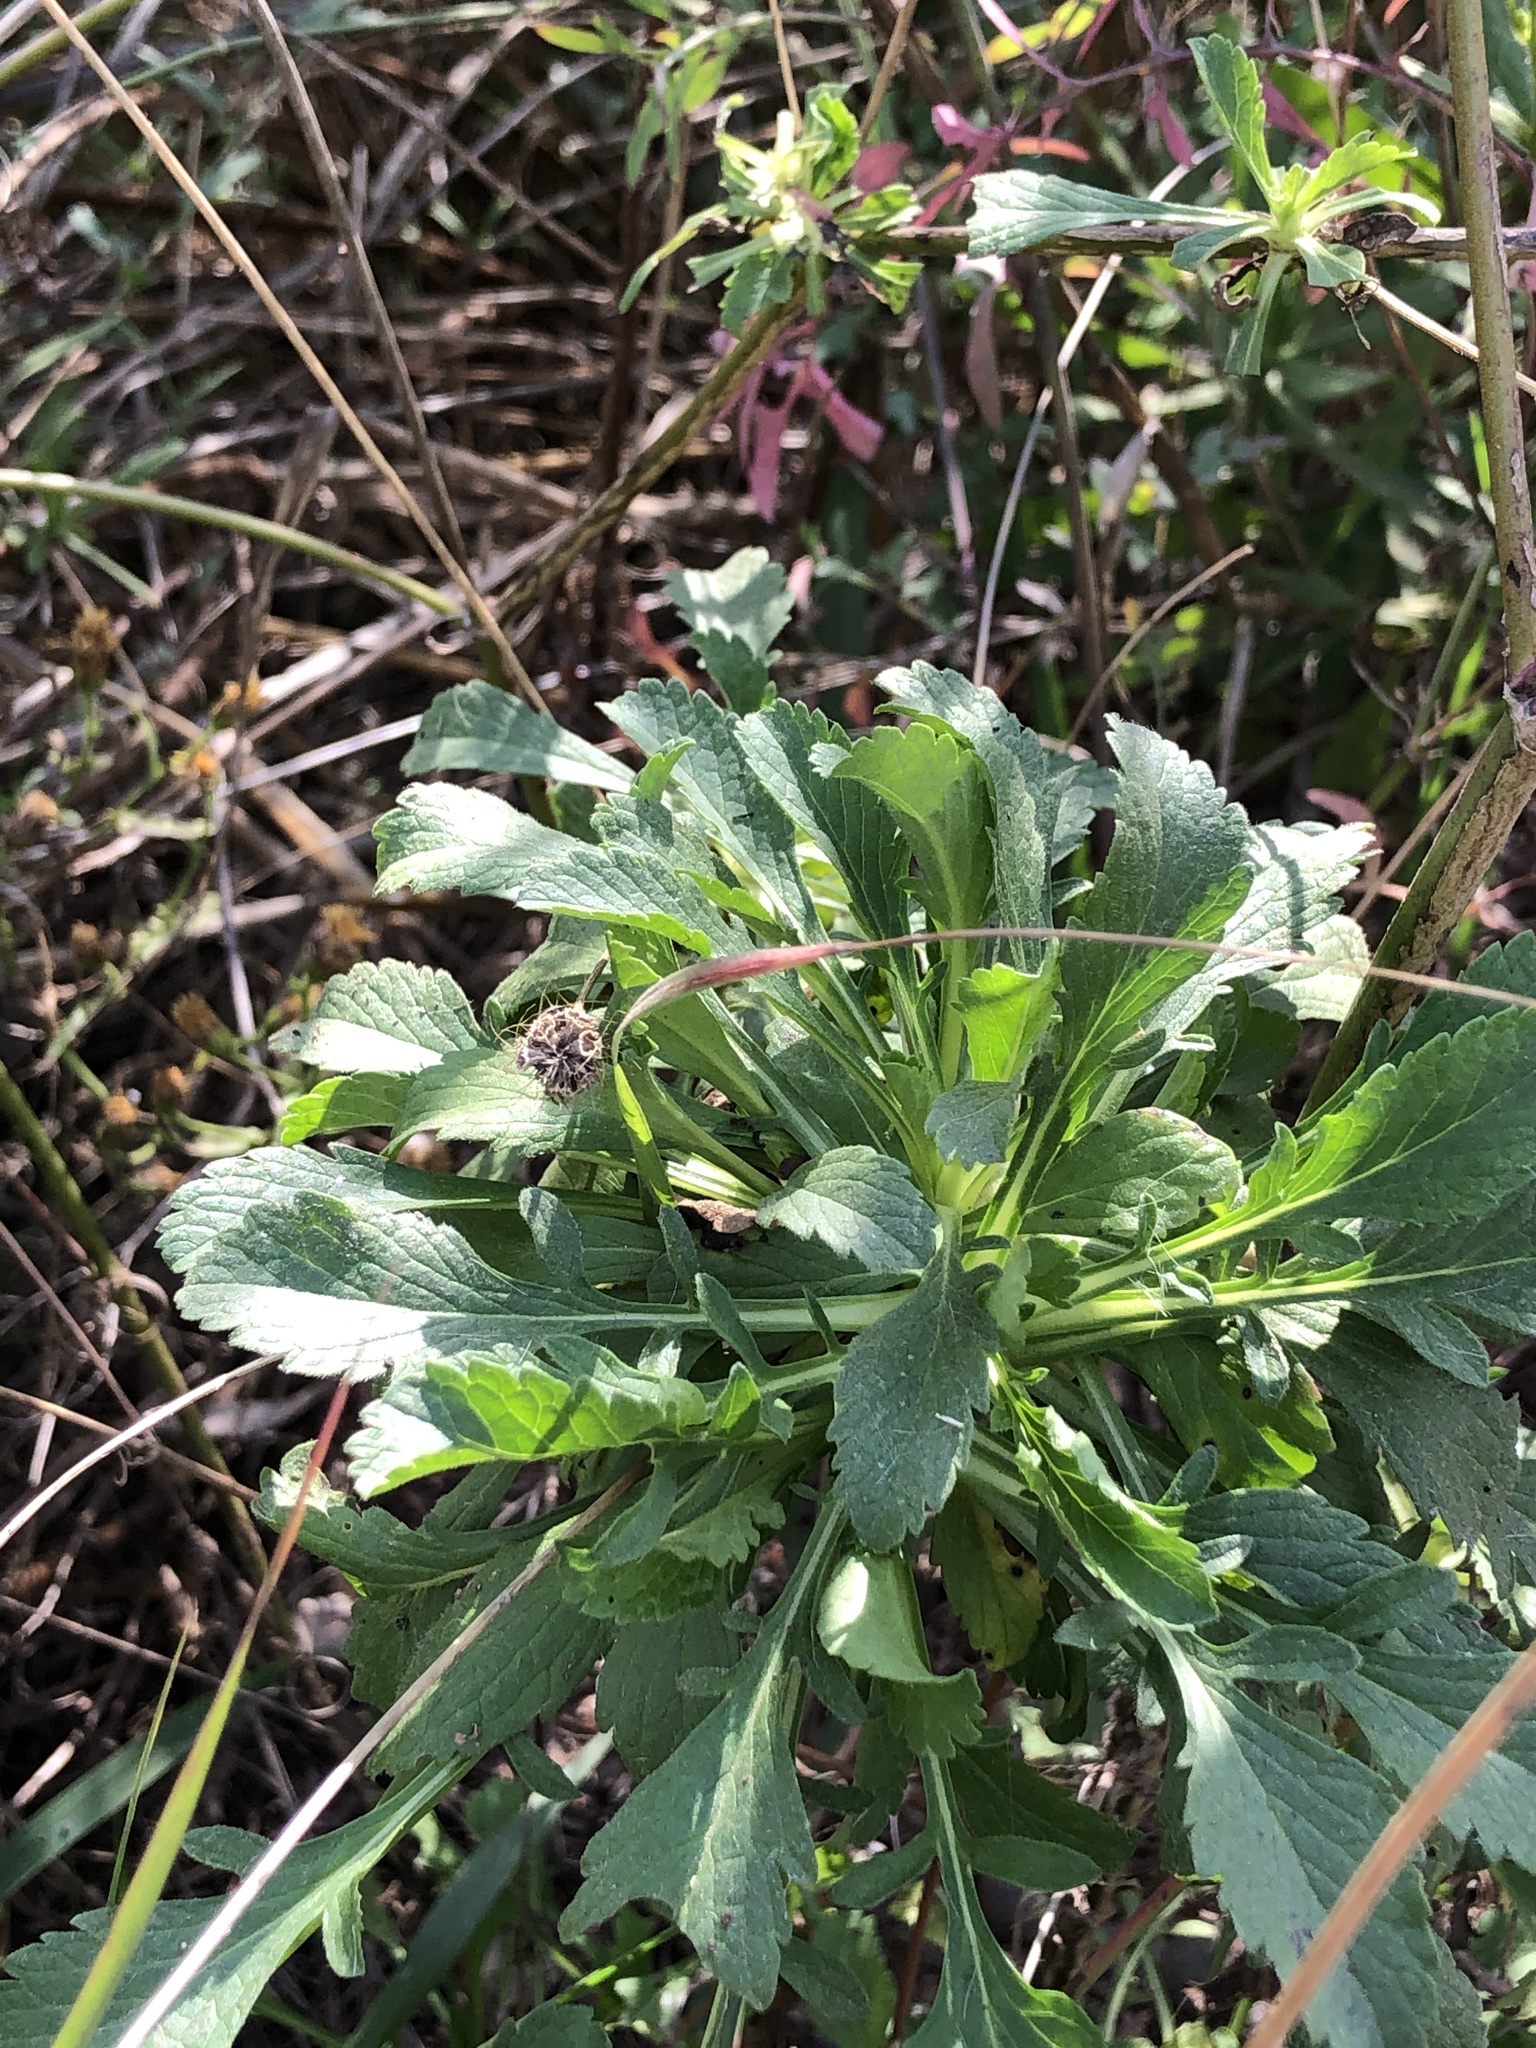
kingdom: Plantae
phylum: Tracheophyta
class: Magnoliopsida
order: Dipsacales
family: Caprifoliaceae
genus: Sixalix
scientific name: Sixalix atropurpurea
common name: Sweet scabious
